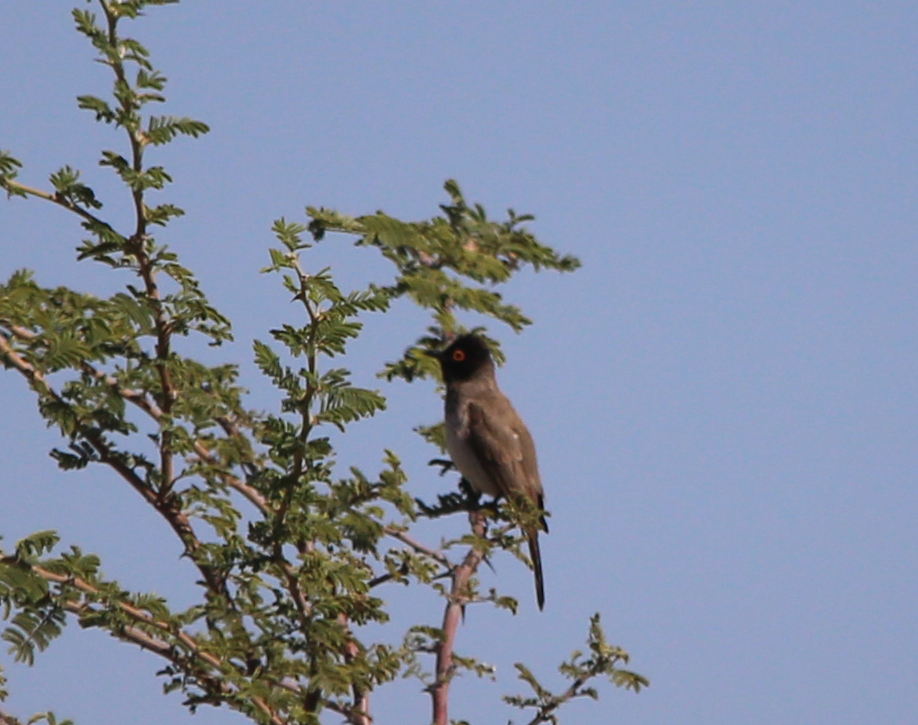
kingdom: Animalia
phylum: Chordata
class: Aves
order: Passeriformes
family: Pycnonotidae
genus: Pycnonotus
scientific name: Pycnonotus nigricans
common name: African red-eyed bulbul
